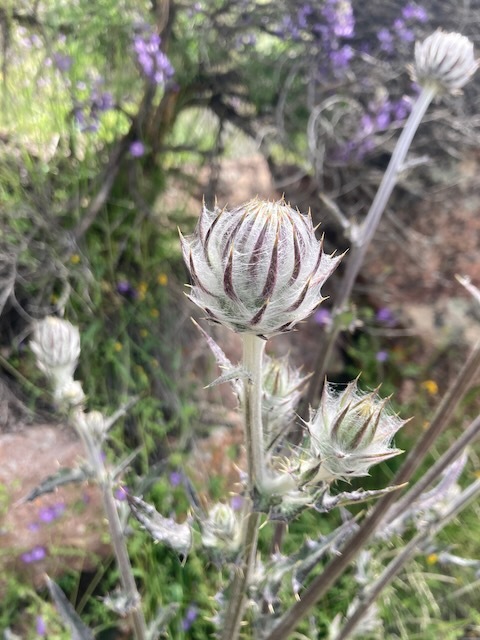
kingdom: Plantae
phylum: Tracheophyta
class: Magnoliopsida
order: Asterales
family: Asteraceae
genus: Cirsium
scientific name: Cirsium occidentale
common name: Western thistle
